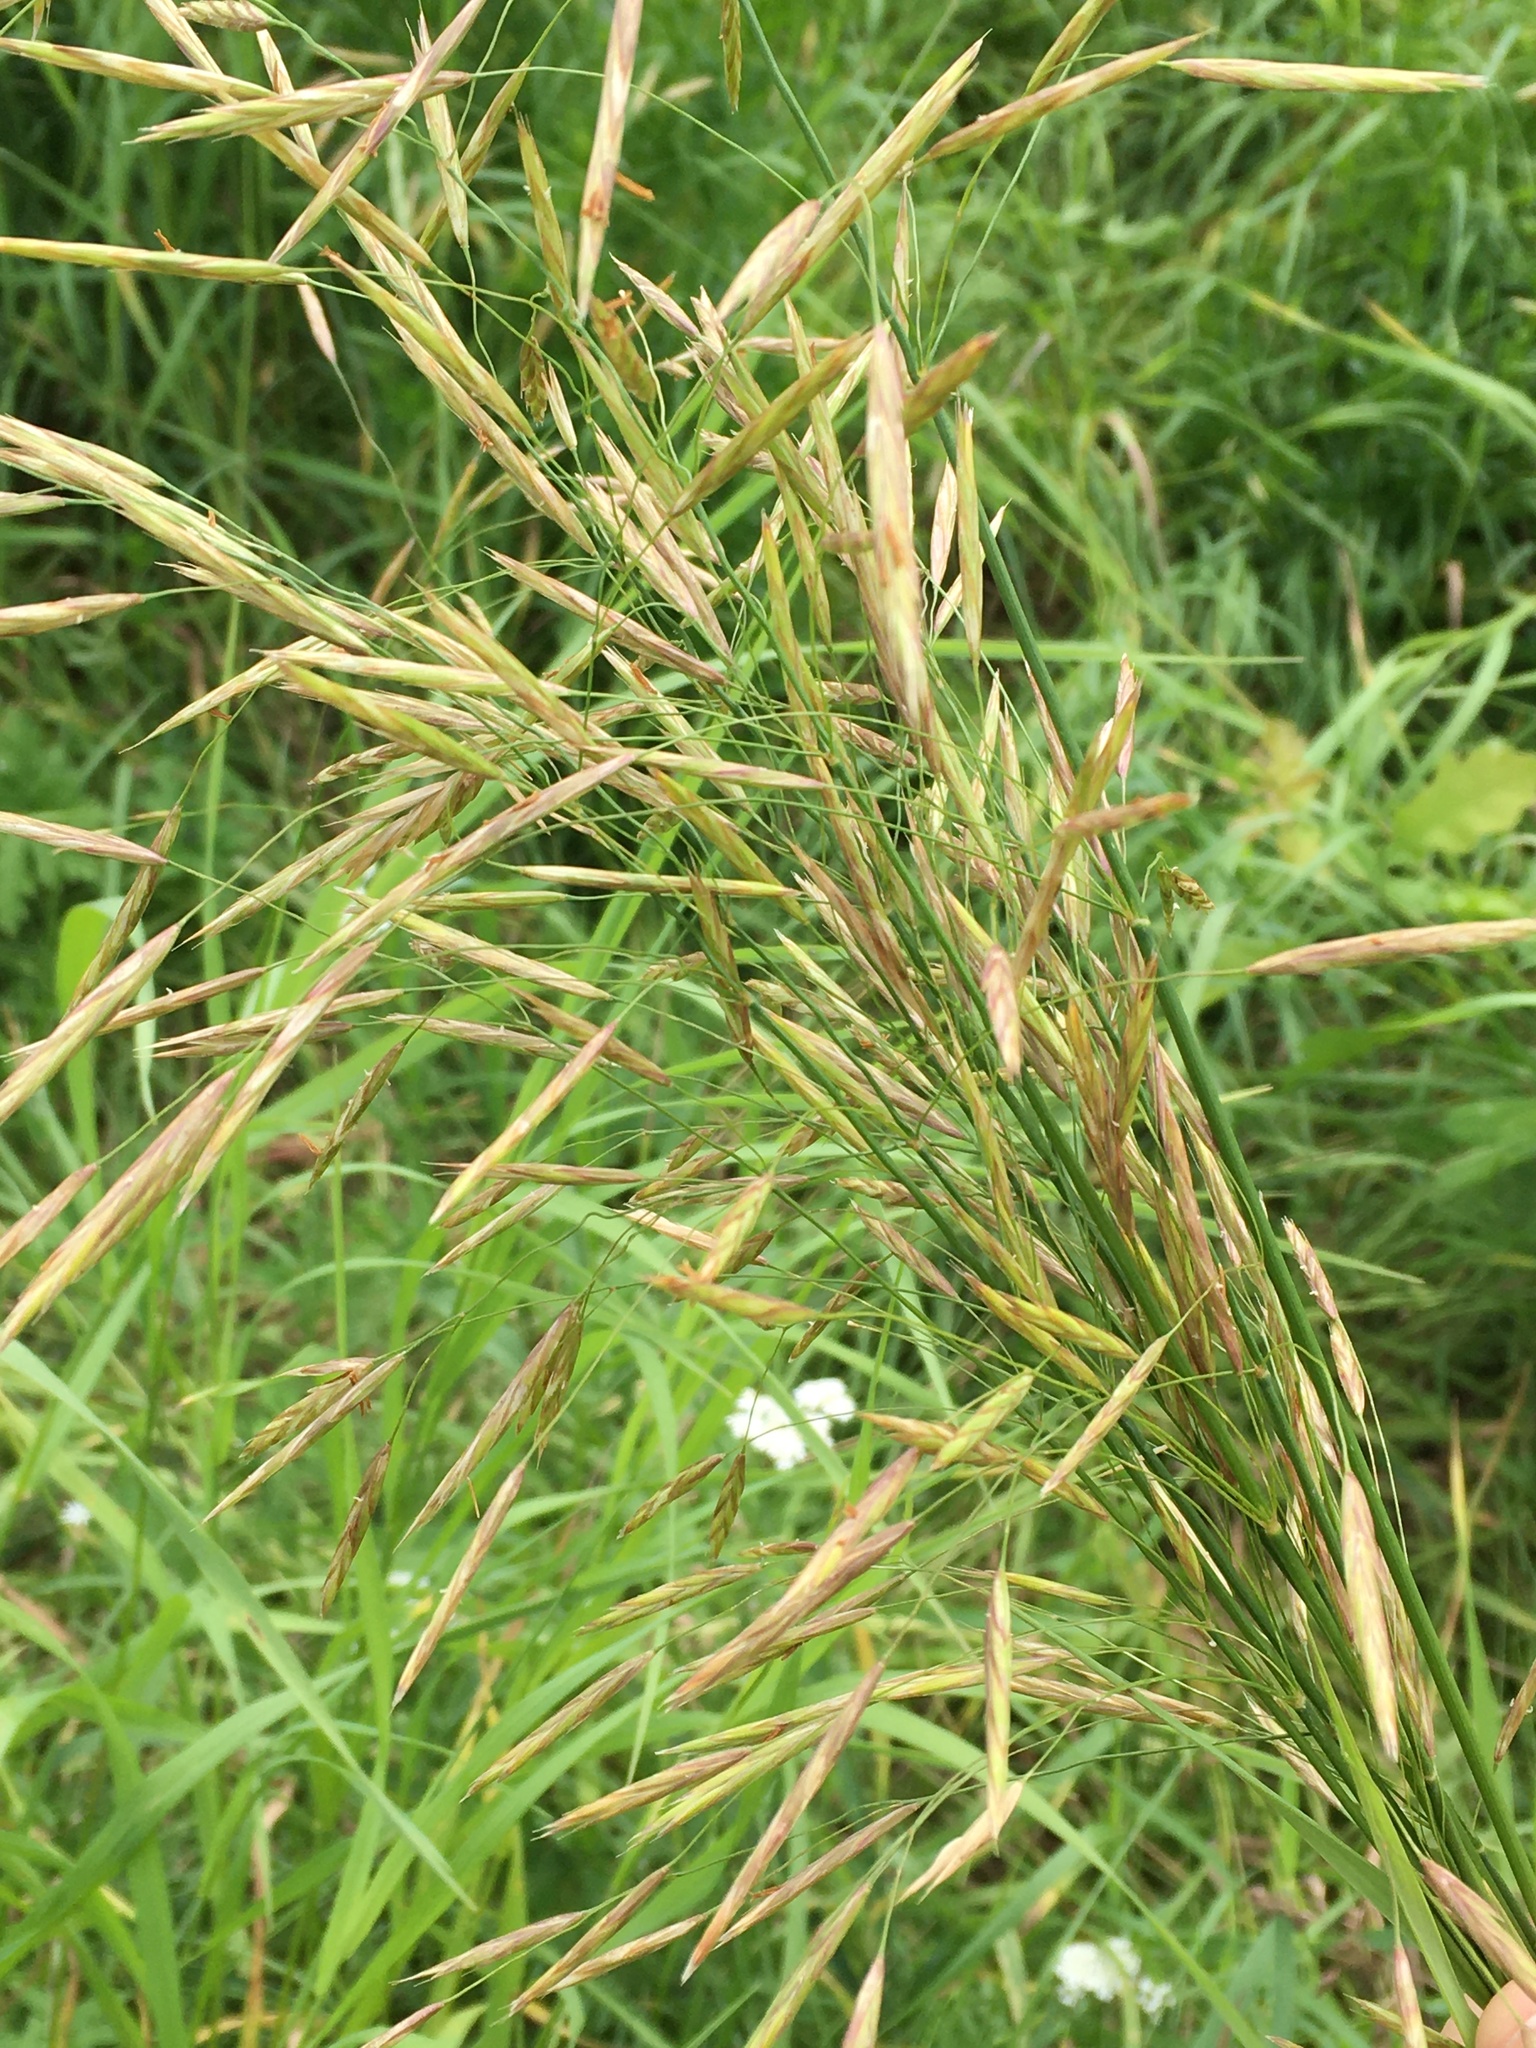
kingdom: Plantae
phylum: Tracheophyta
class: Liliopsida
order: Poales
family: Poaceae
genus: Bromus
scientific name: Bromus inermis
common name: Smooth brome
